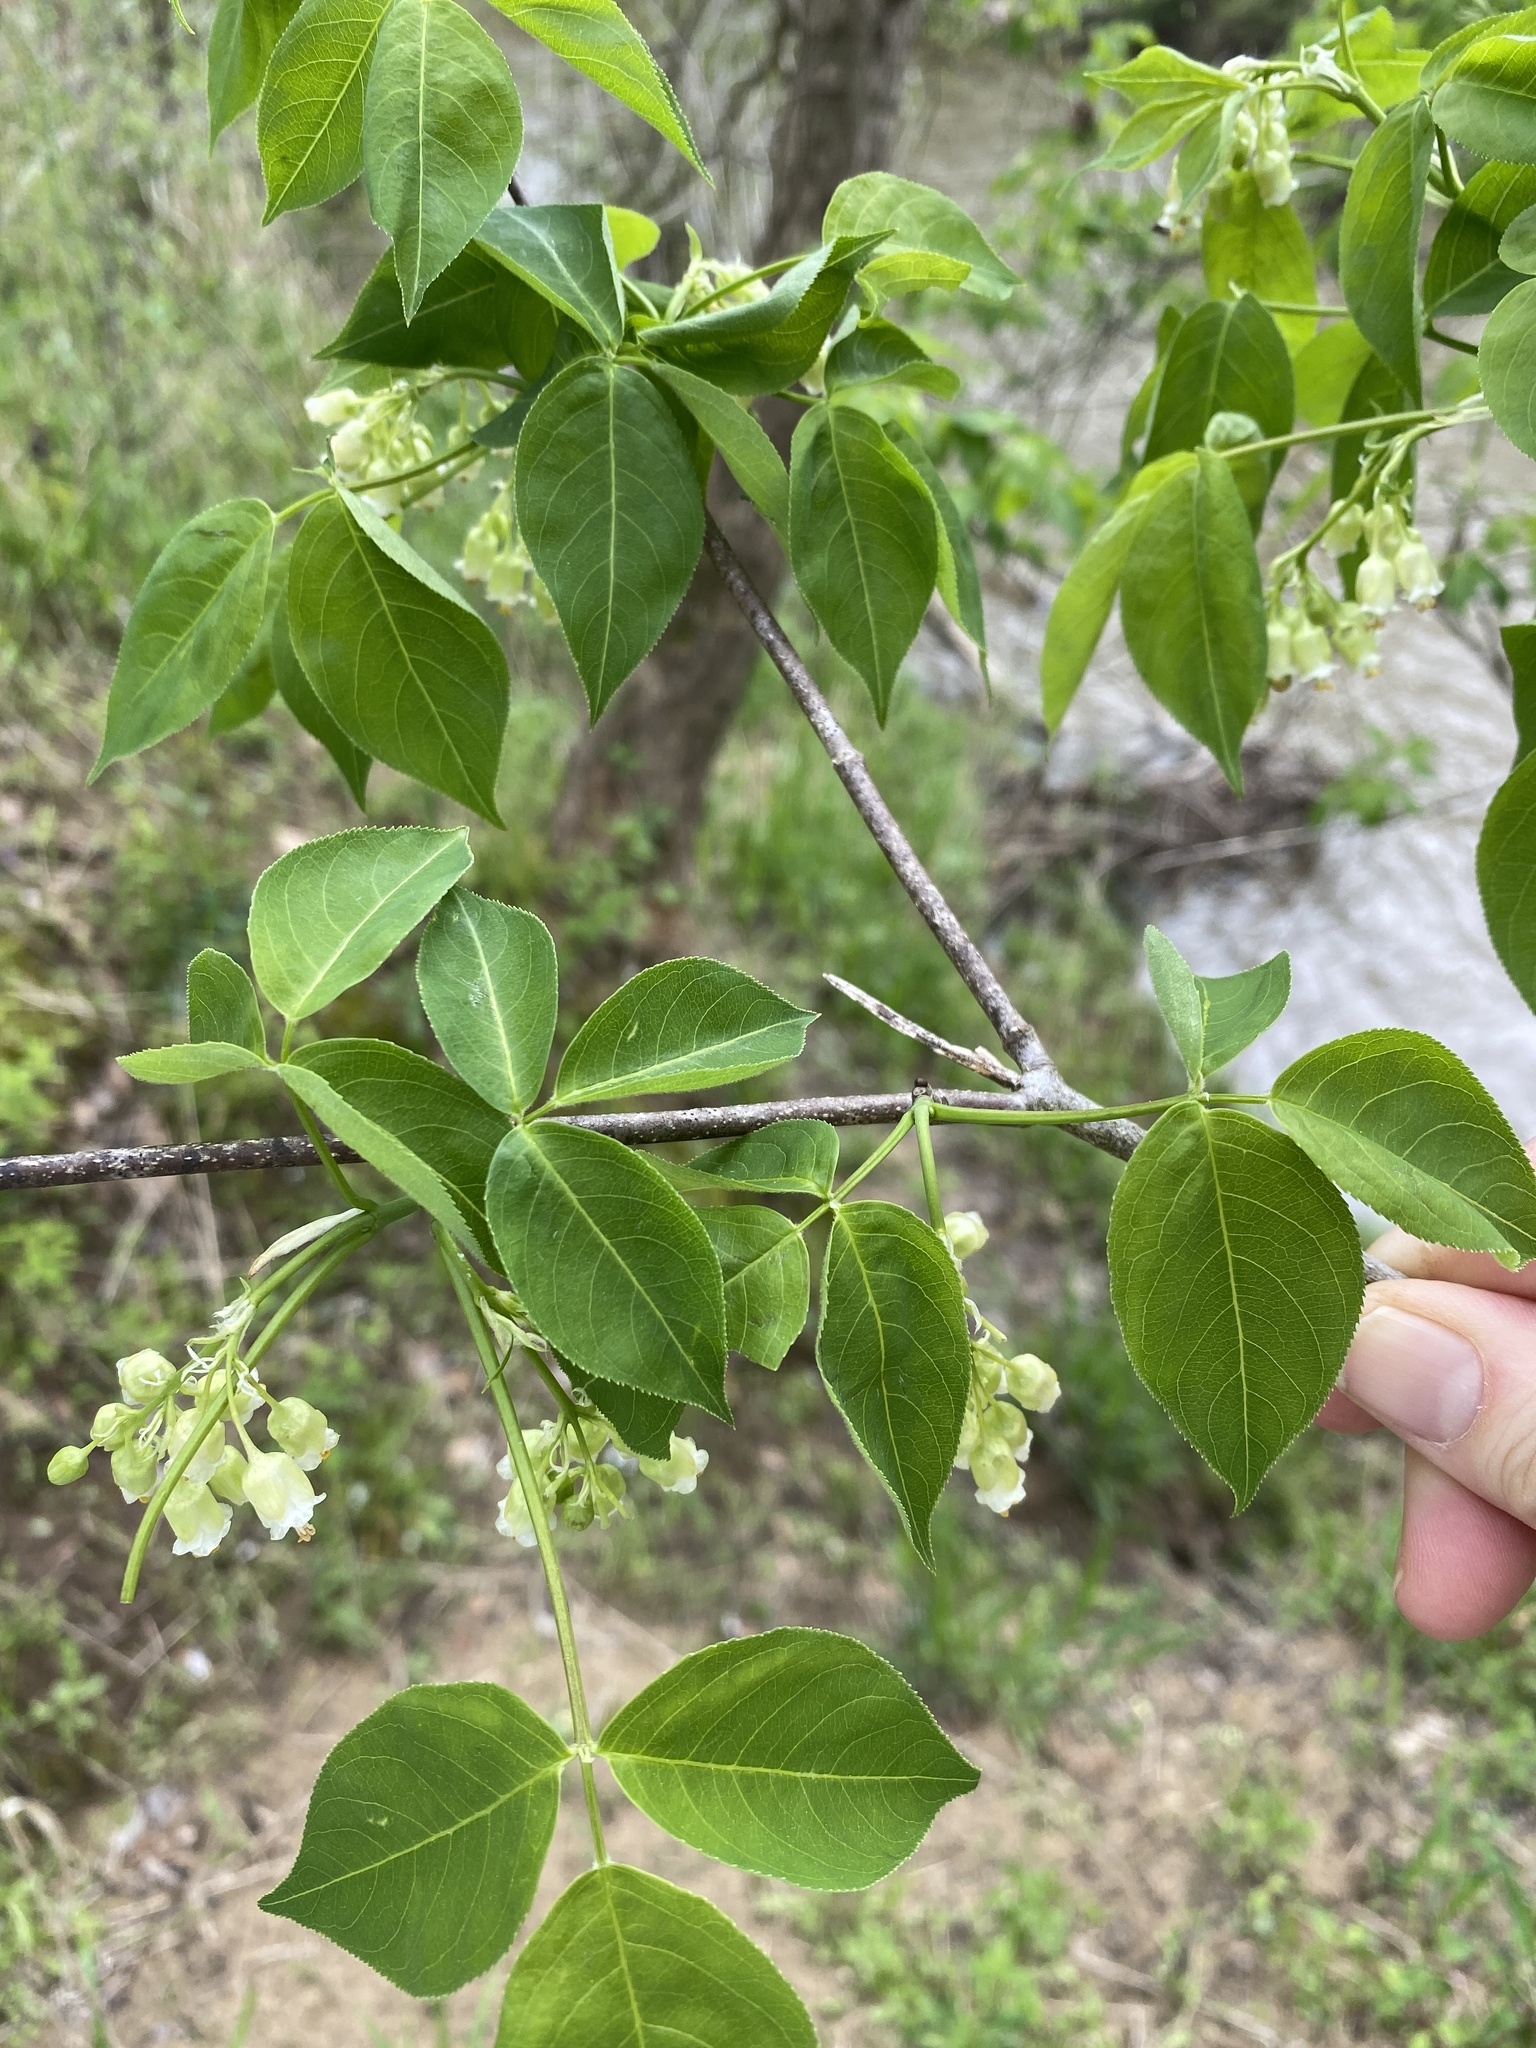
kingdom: Plantae
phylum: Tracheophyta
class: Magnoliopsida
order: Crossosomatales
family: Staphyleaceae
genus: Staphylea
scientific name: Staphylea trifolia
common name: American bladdernut
